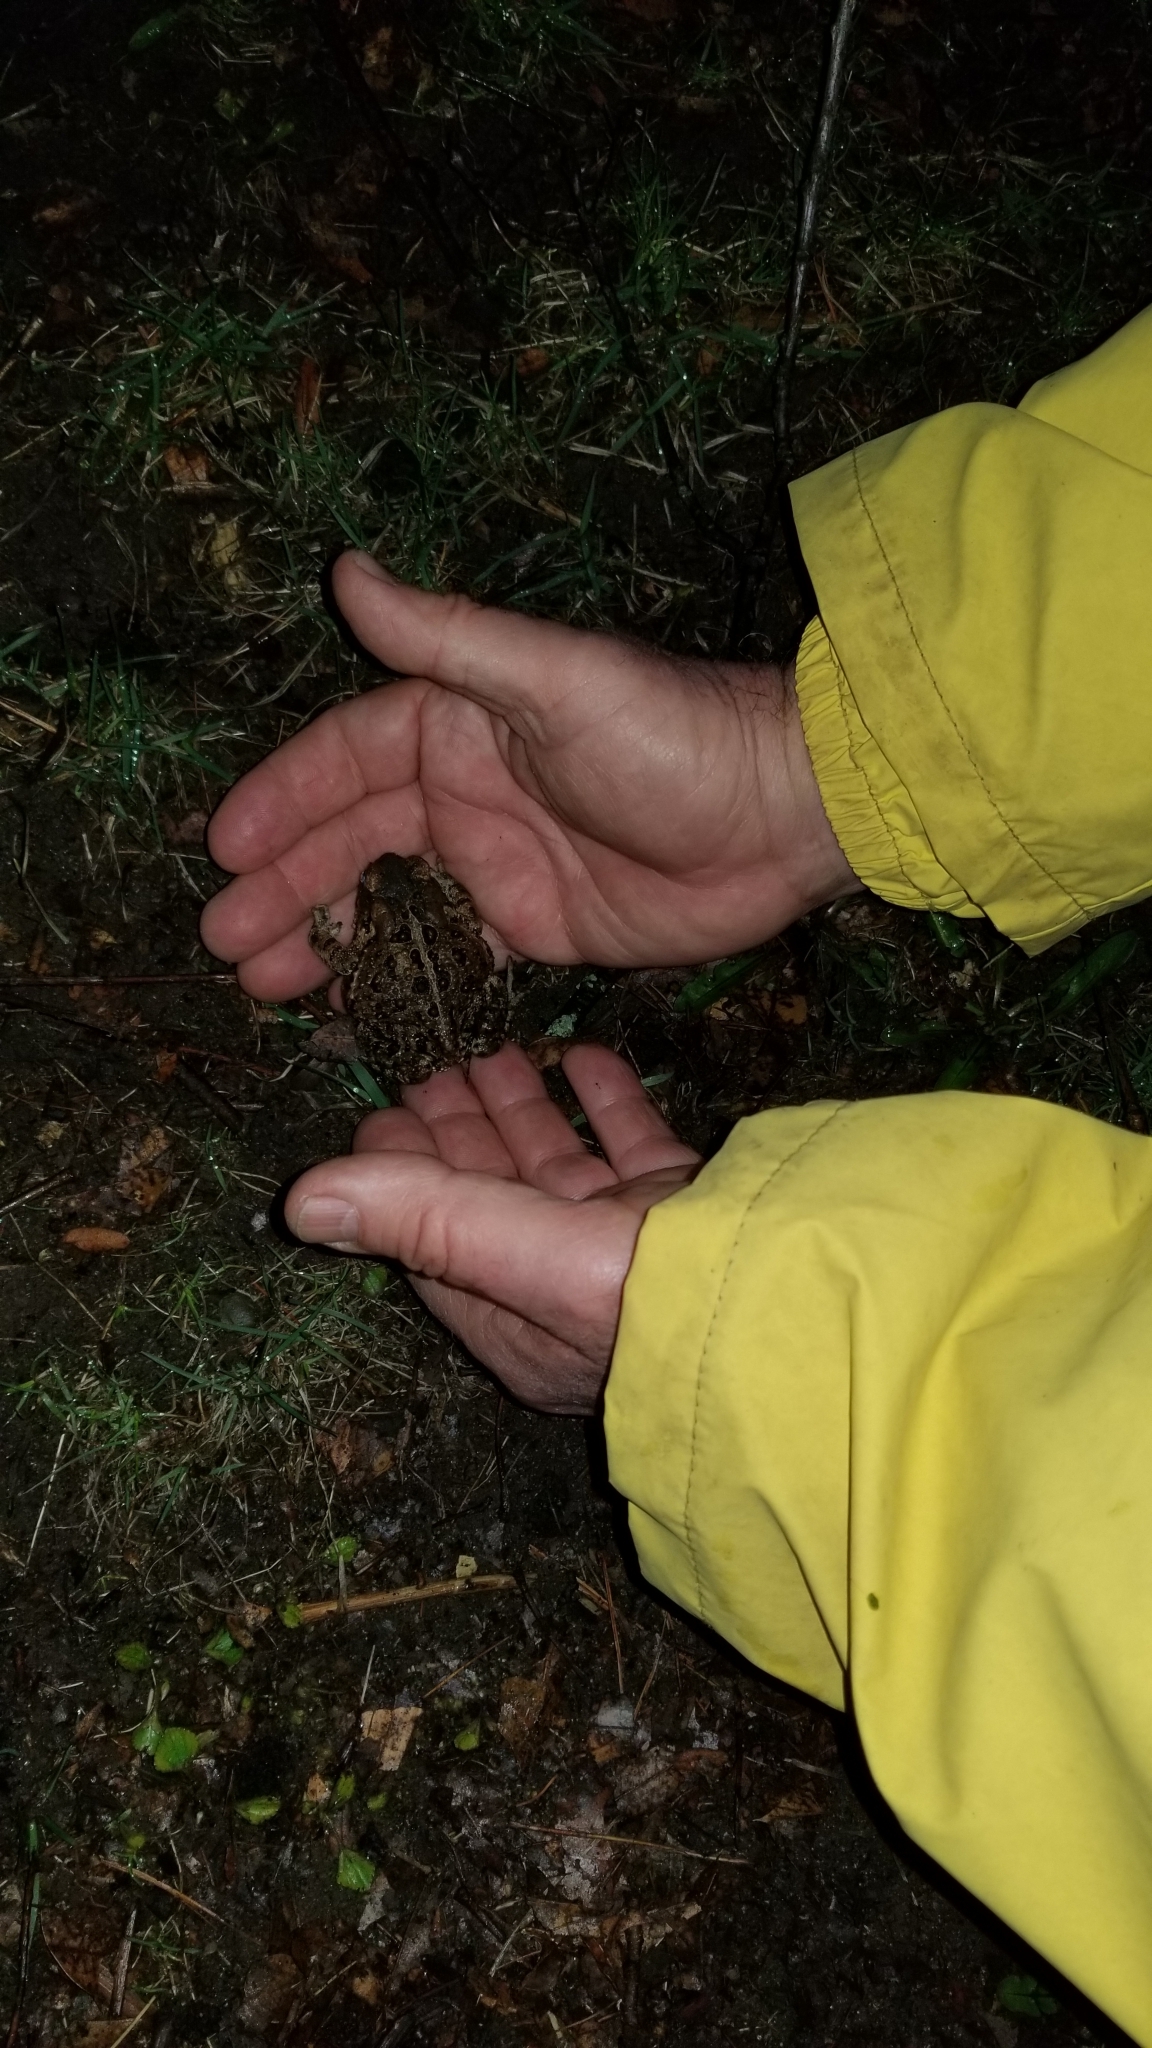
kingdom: Animalia
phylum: Chordata
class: Amphibia
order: Anura
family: Bufonidae
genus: Anaxyrus
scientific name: Anaxyrus americanus
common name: American toad
